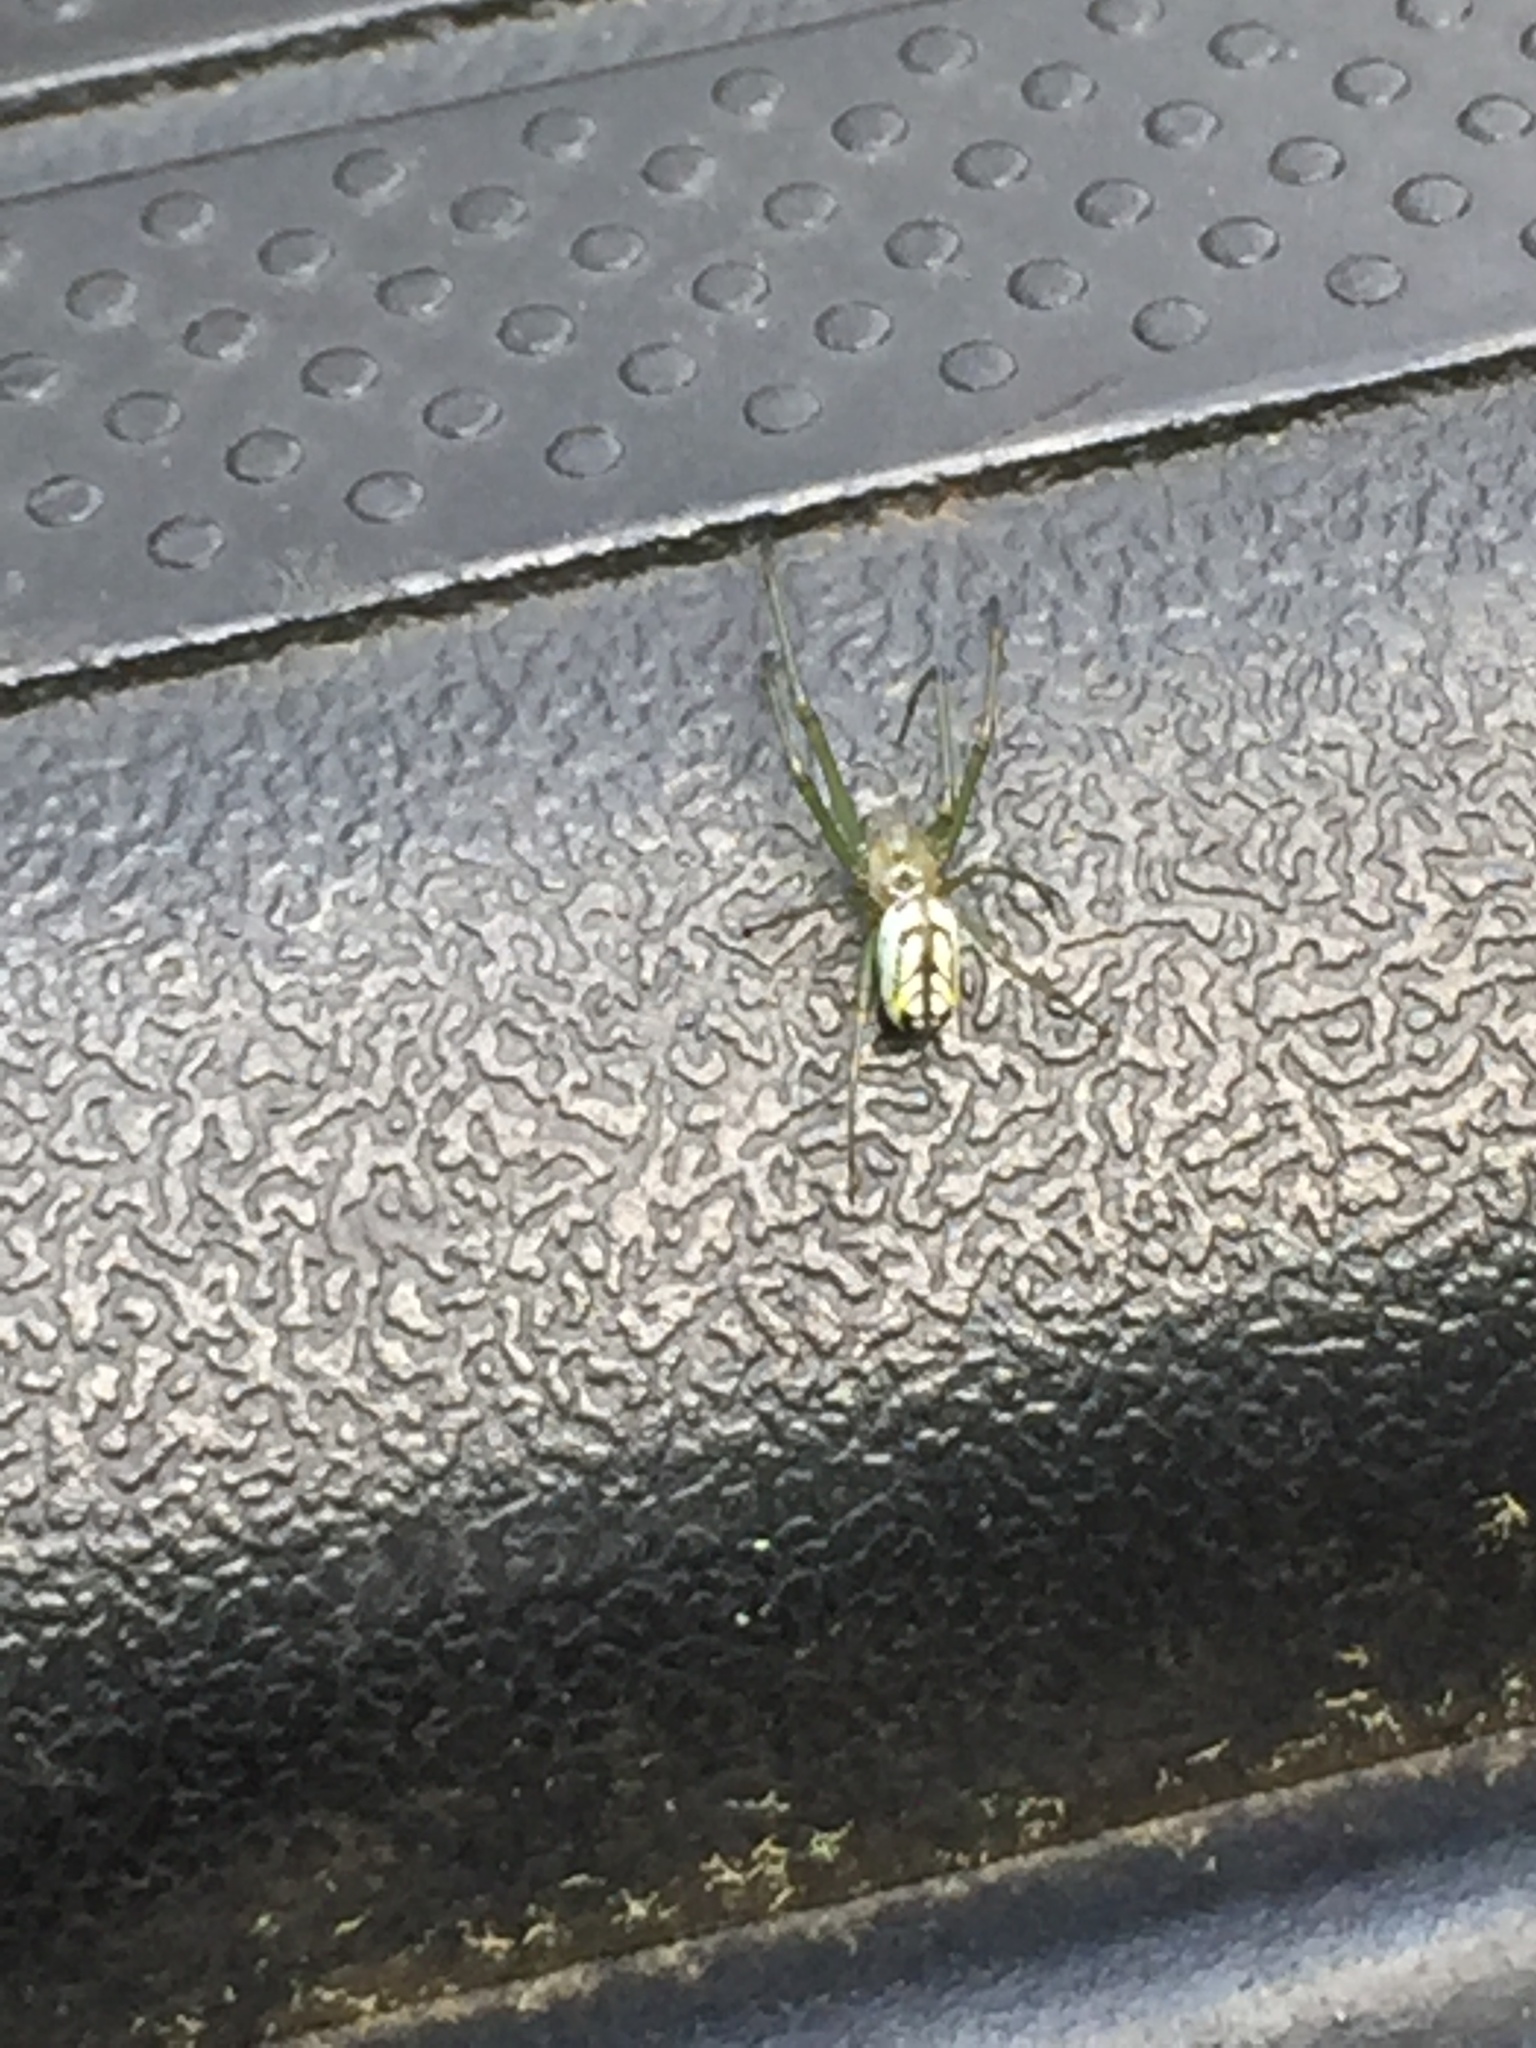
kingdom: Animalia
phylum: Arthropoda
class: Arachnida
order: Araneae
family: Tetragnathidae
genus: Leucauge
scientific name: Leucauge venusta
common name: Longjawed orb weavers
